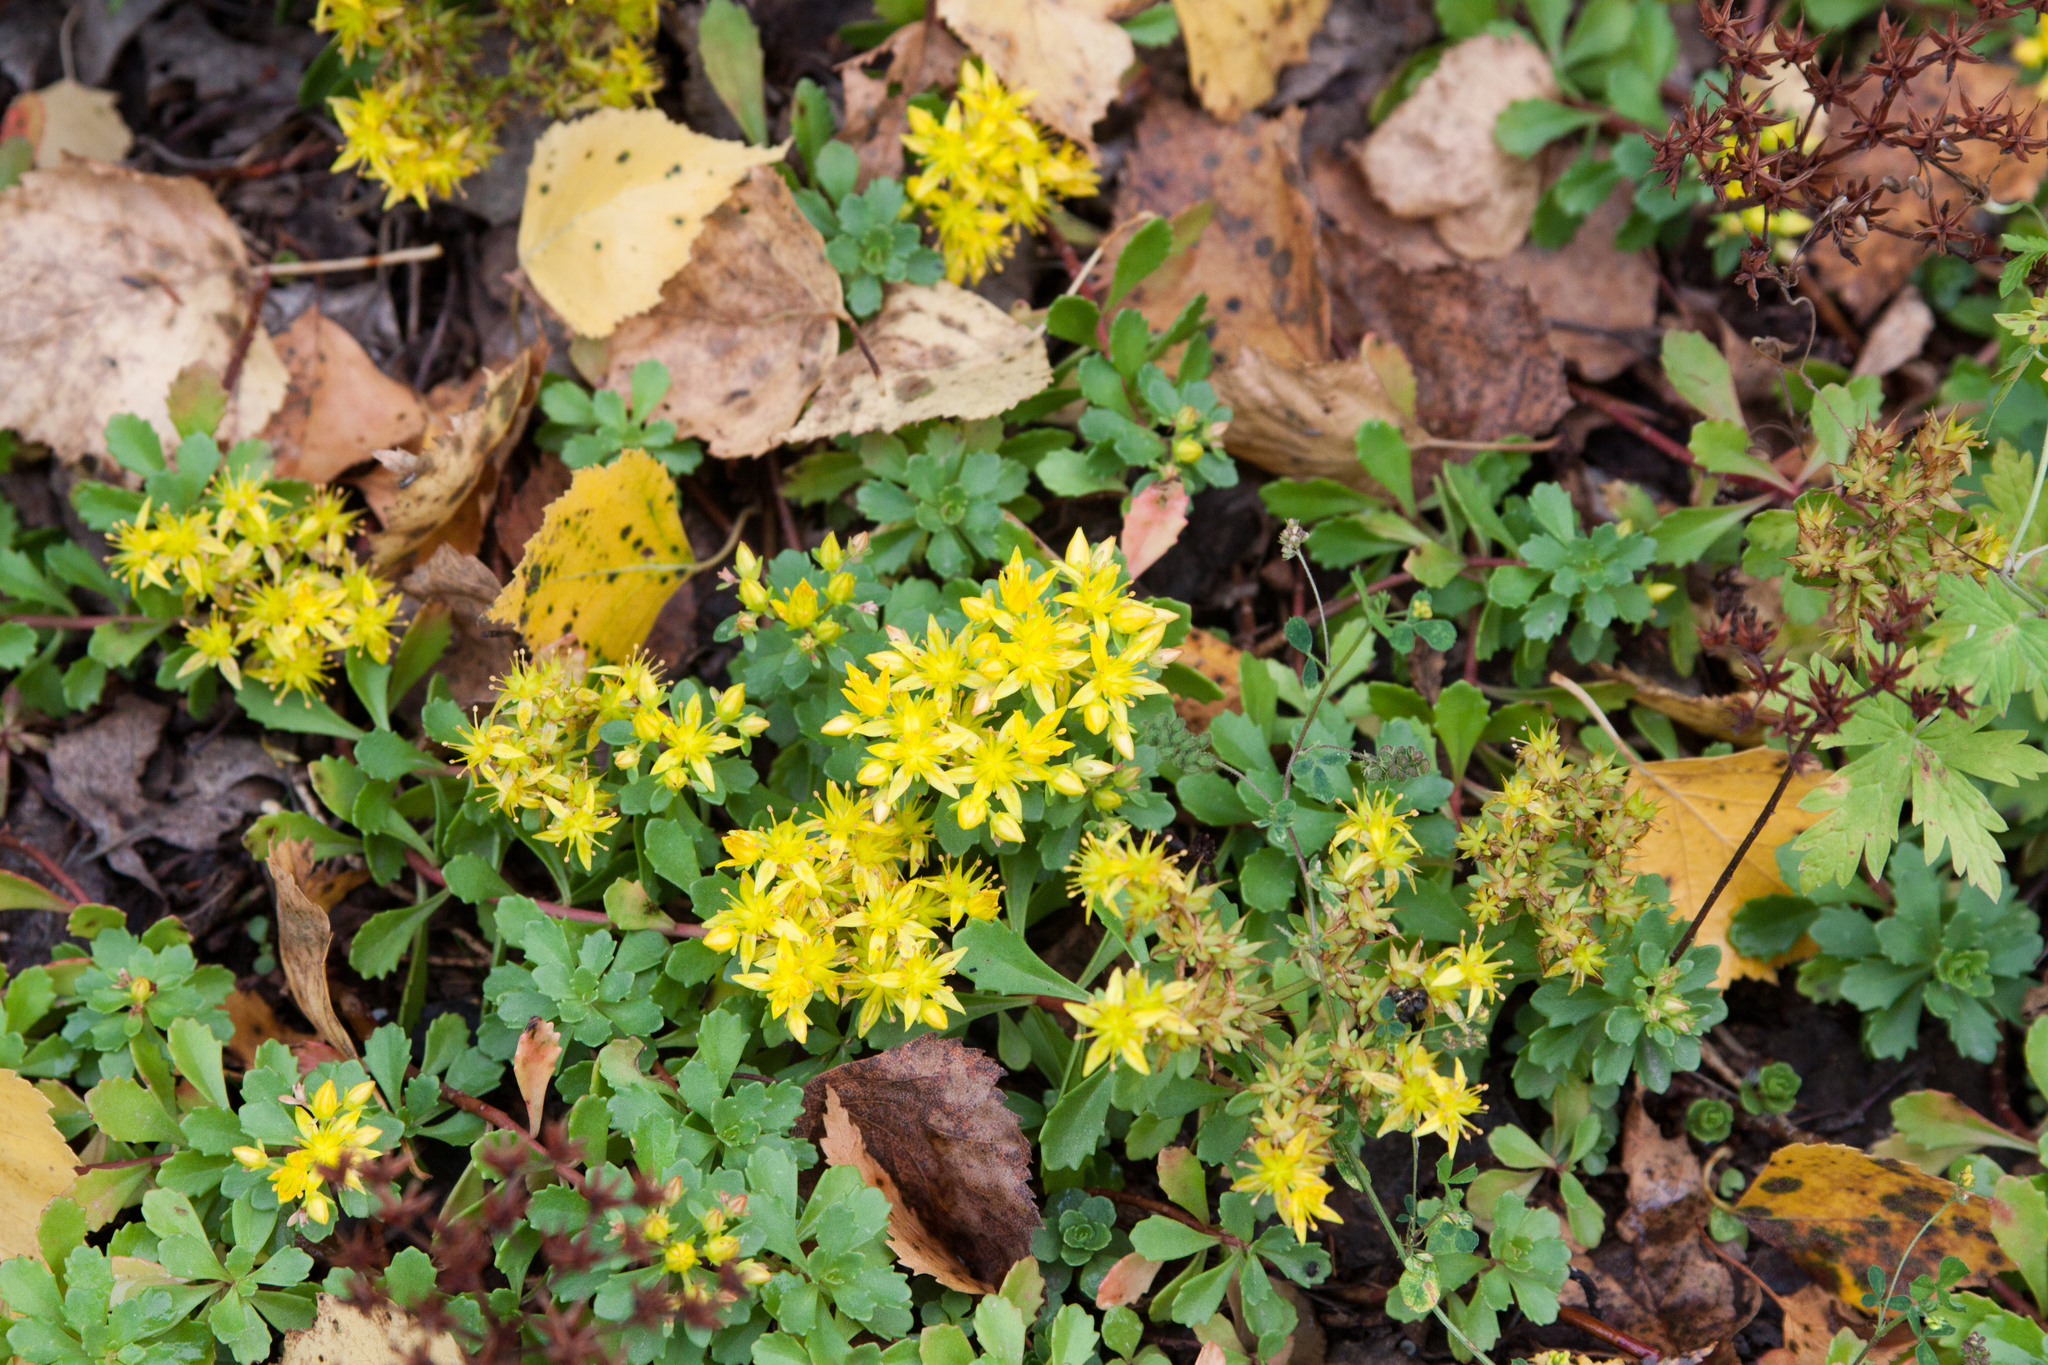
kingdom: Plantae
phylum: Tracheophyta
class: Magnoliopsida
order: Saxifragales
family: Crassulaceae
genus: Phedimus
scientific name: Phedimus hybridus
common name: Hybrid stonecrop
